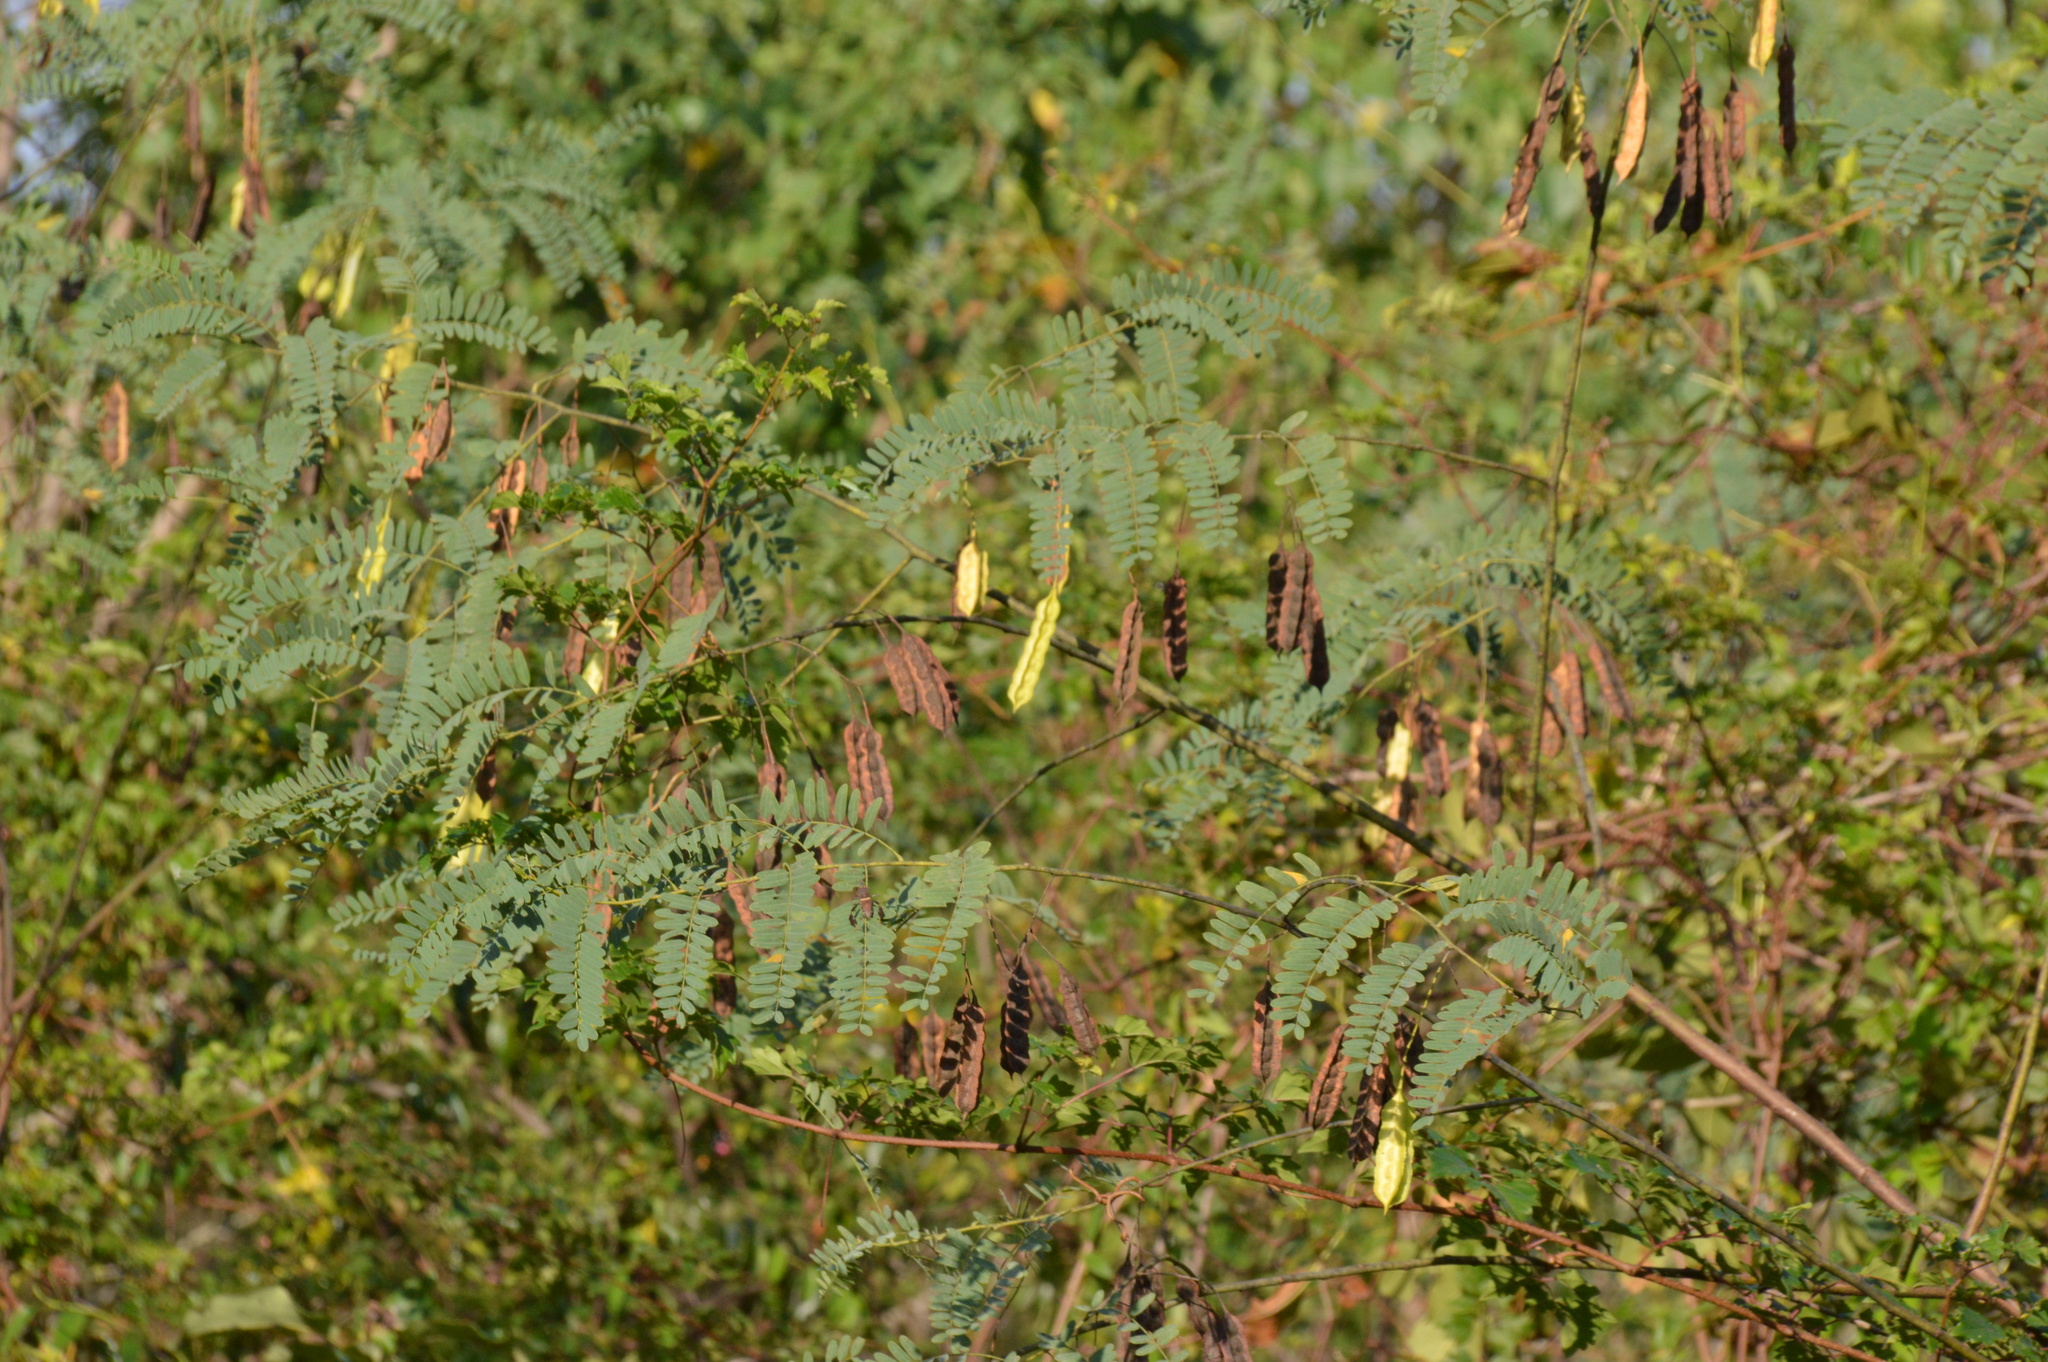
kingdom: Plantae
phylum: Tracheophyta
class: Magnoliopsida
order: Fabales
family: Fabaceae
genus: Sesbania
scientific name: Sesbania drummondii
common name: Poison-bean
